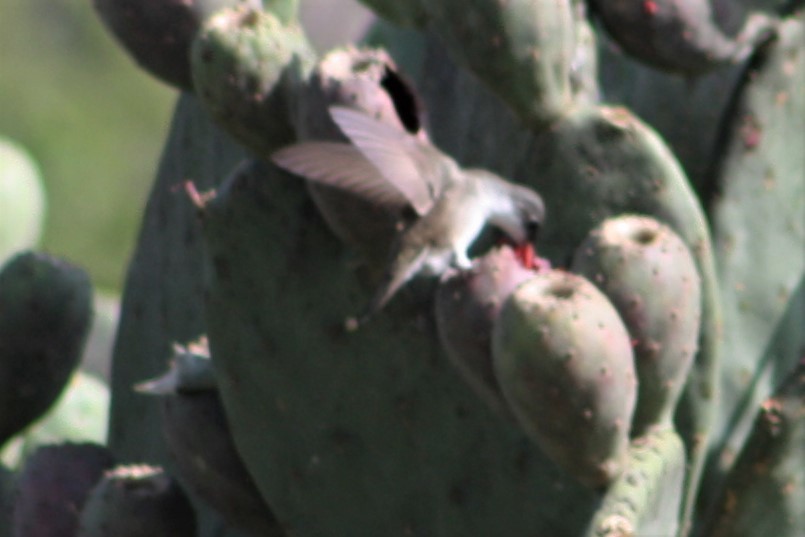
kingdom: Animalia
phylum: Chordata
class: Aves
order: Apodiformes
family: Trochilidae
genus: Leucolia
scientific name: Leucolia violiceps
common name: Violet-crowned hummingbird
